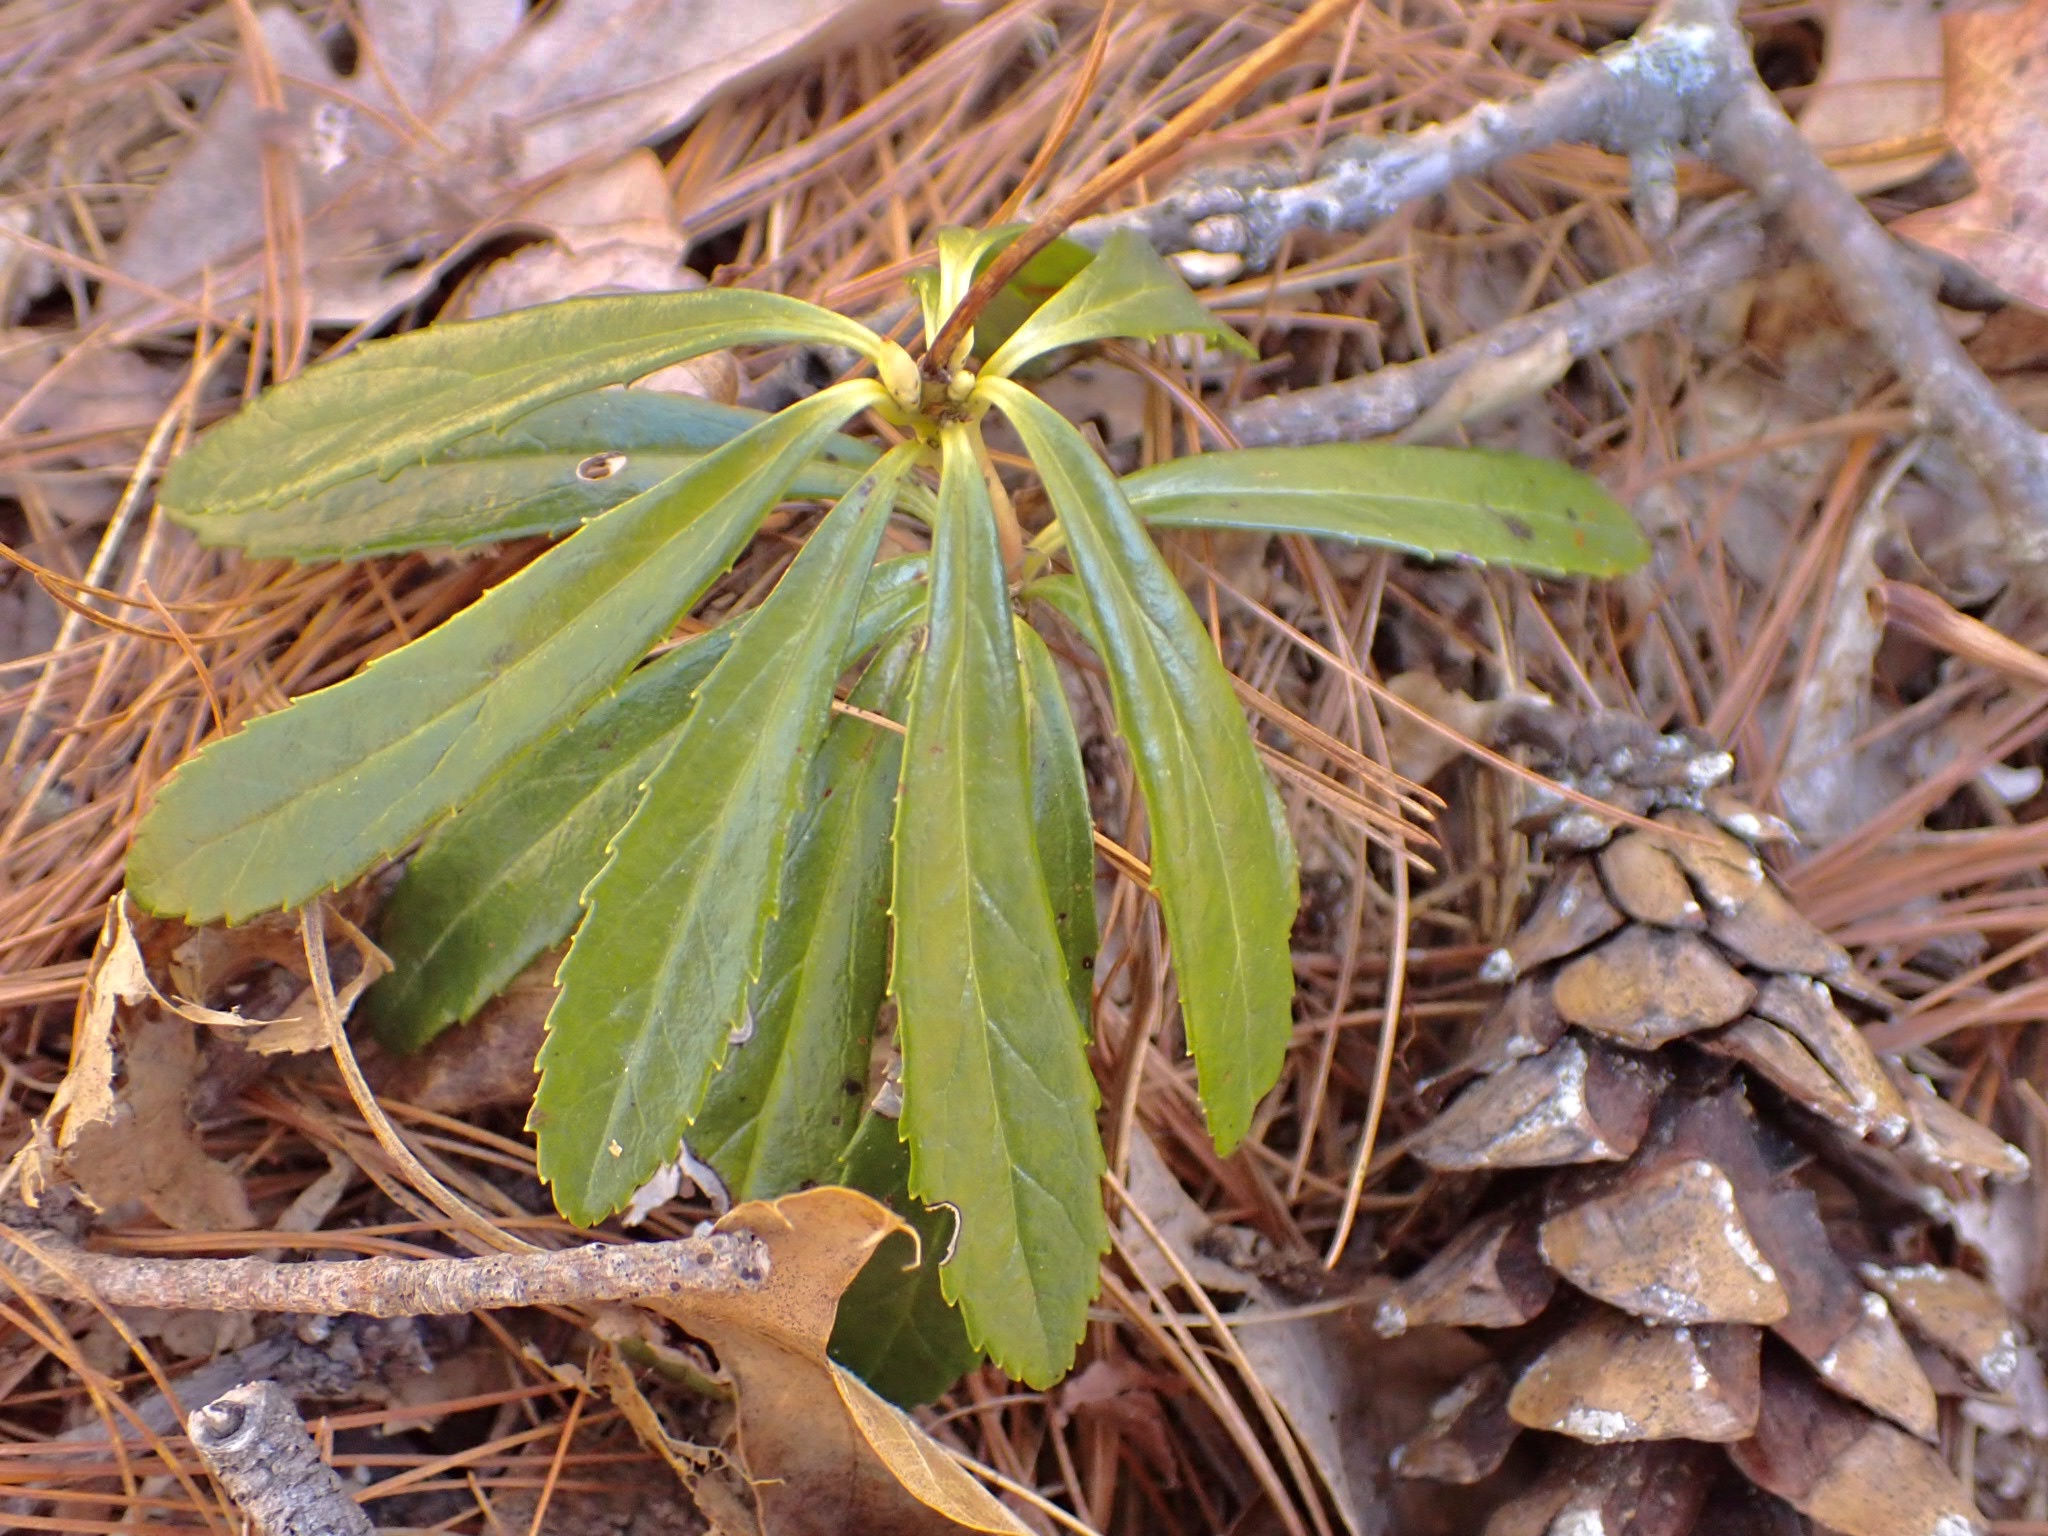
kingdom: Plantae
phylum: Tracheophyta
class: Magnoliopsida
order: Ericales
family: Ericaceae
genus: Chimaphila
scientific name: Chimaphila umbellata
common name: Pipsissewa
